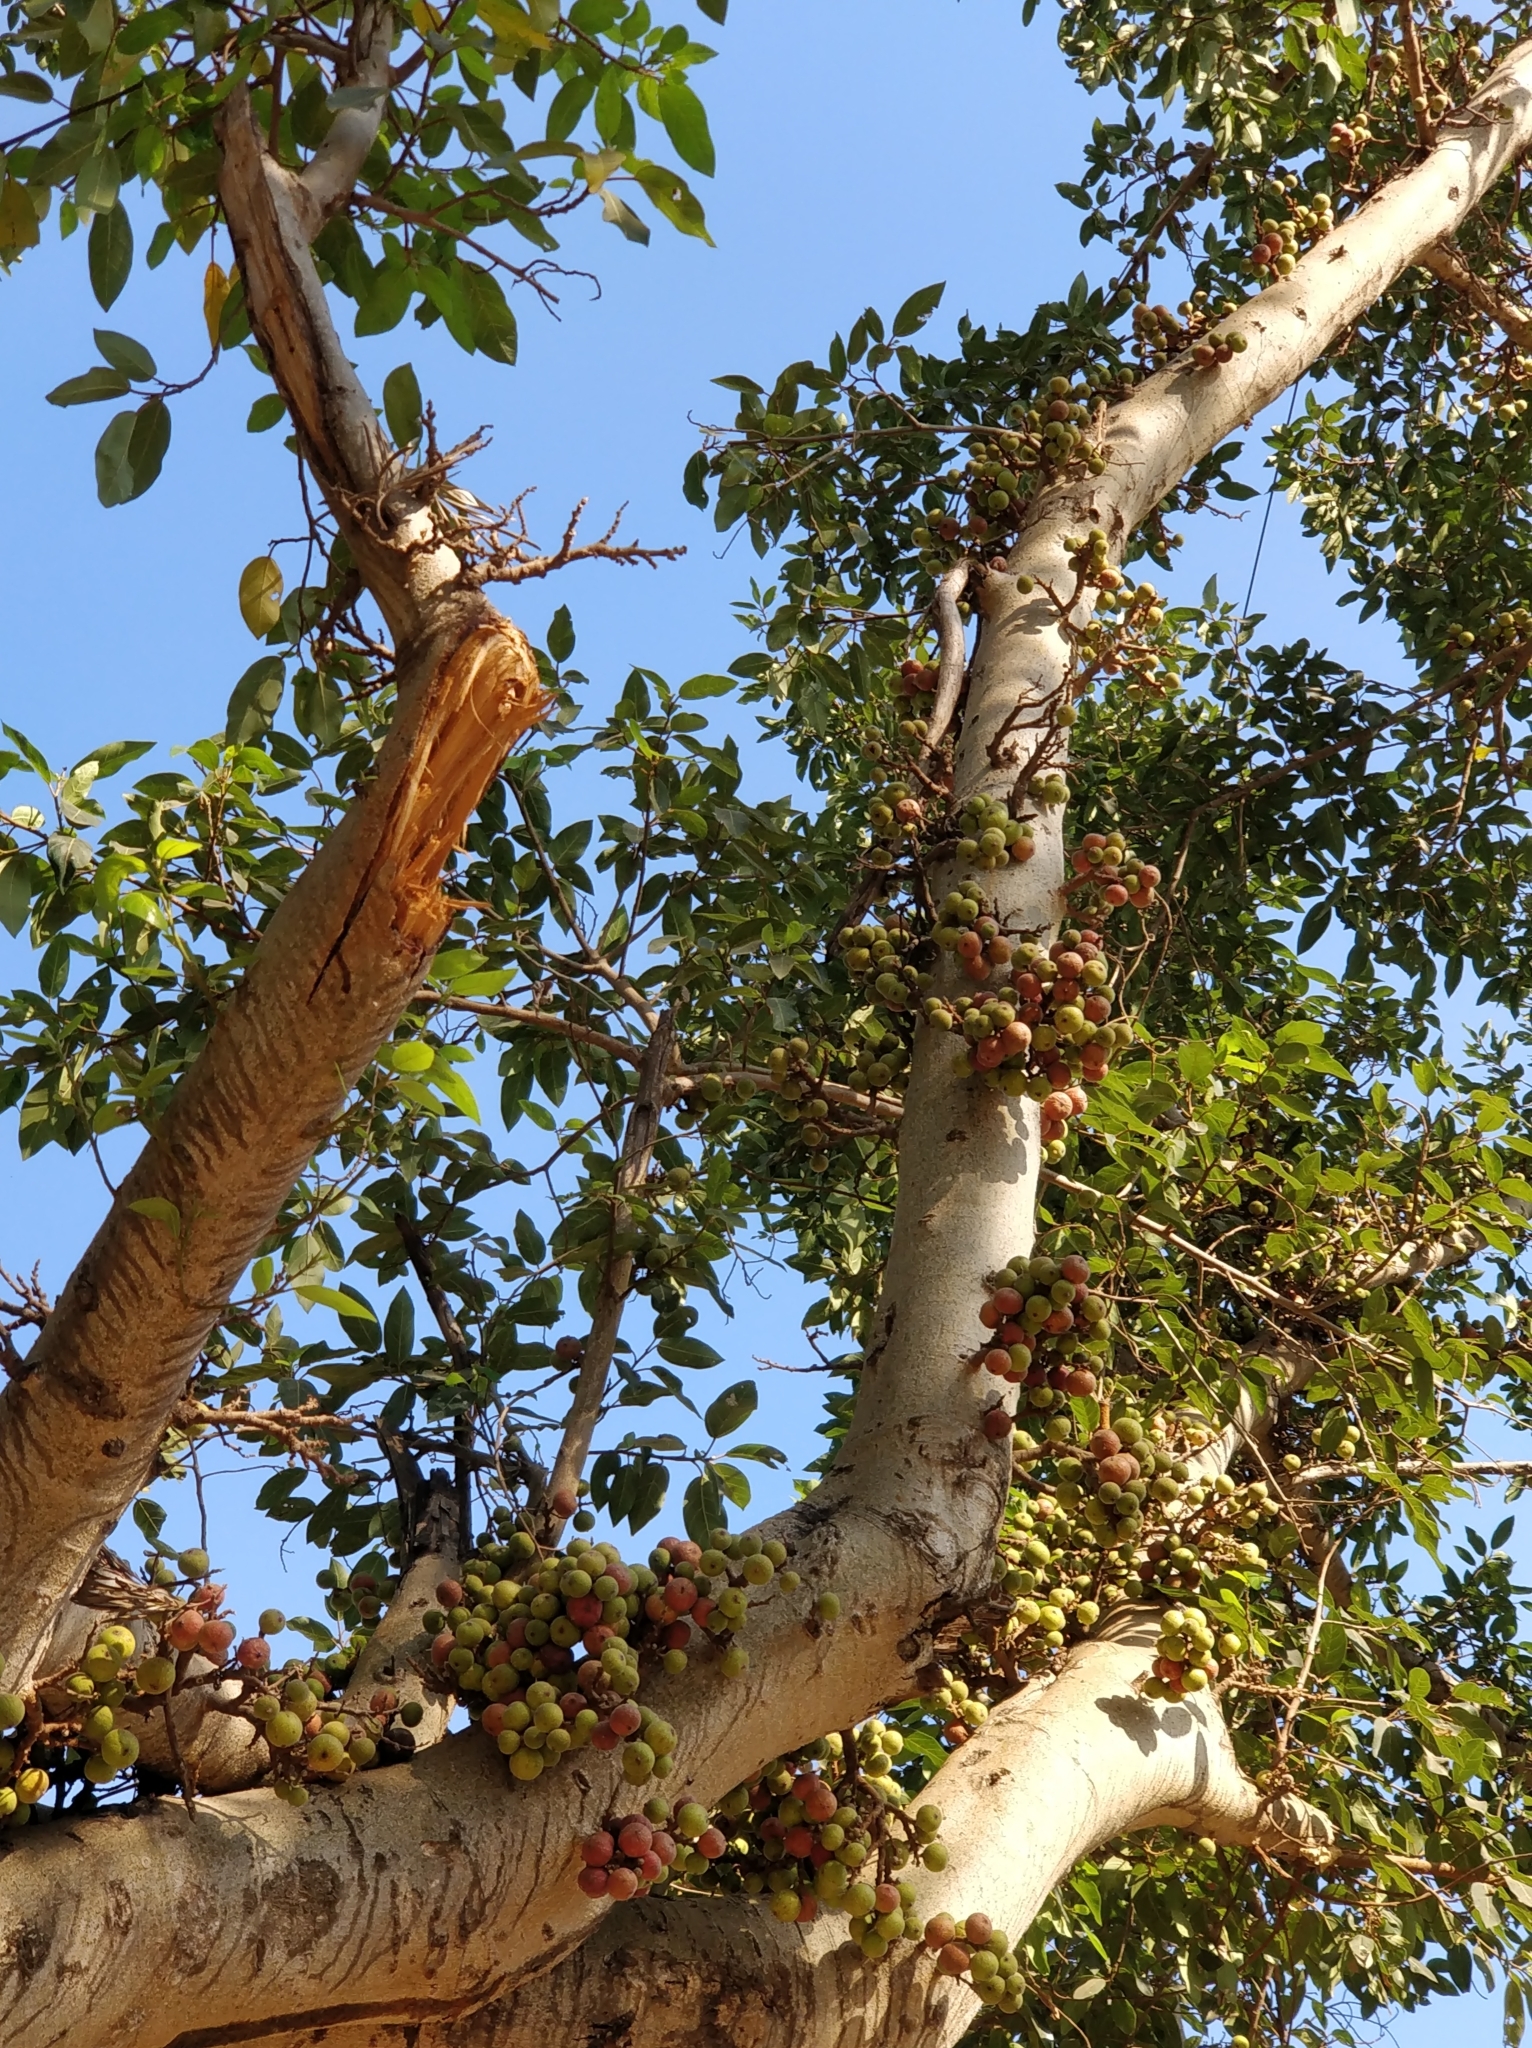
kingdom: Plantae
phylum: Tracheophyta
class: Magnoliopsida
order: Rosales
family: Moraceae
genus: Ficus
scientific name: Ficus racemosa
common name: Cluster fig
